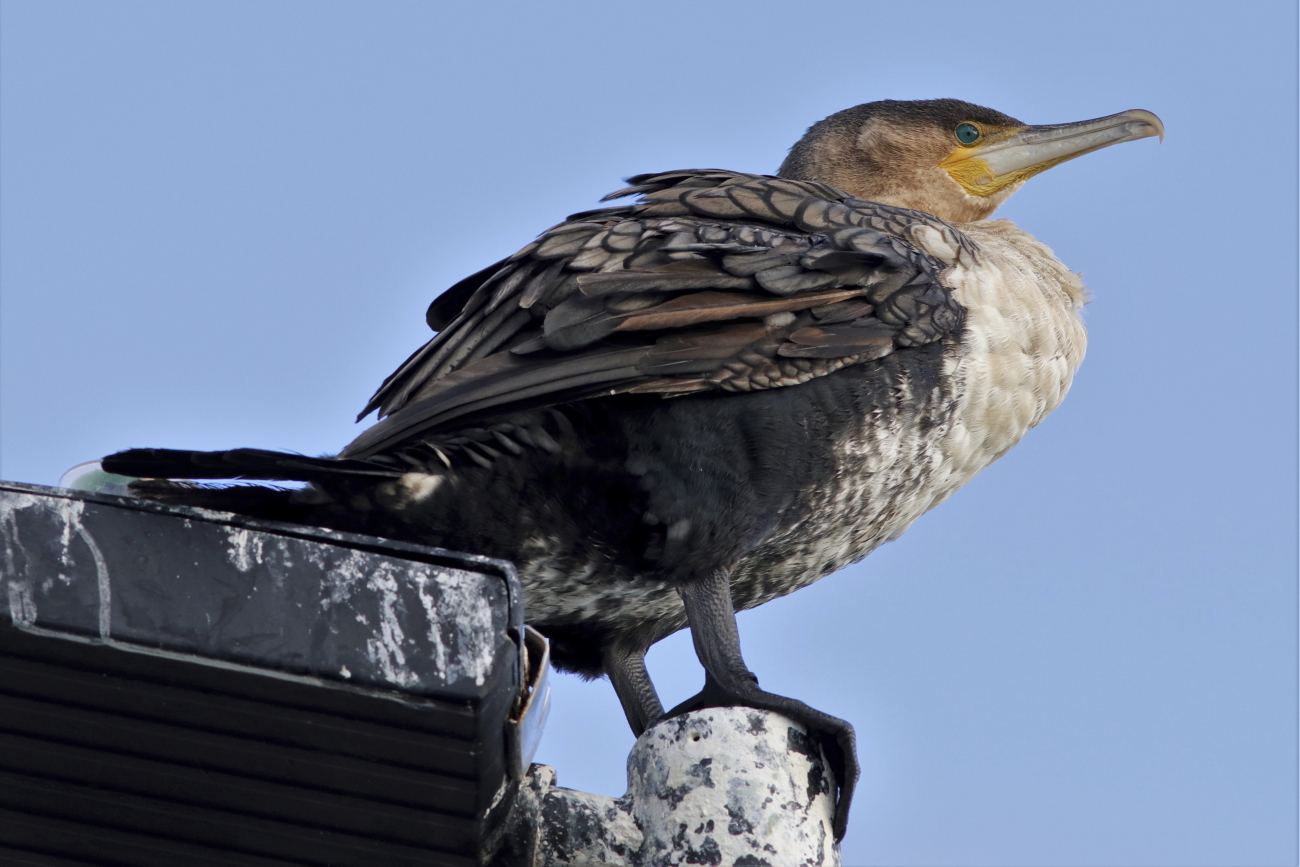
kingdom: Animalia
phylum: Chordata
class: Aves
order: Suliformes
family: Phalacrocoracidae
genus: Phalacrocorax
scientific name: Phalacrocorax carbo
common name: Great cormorant
